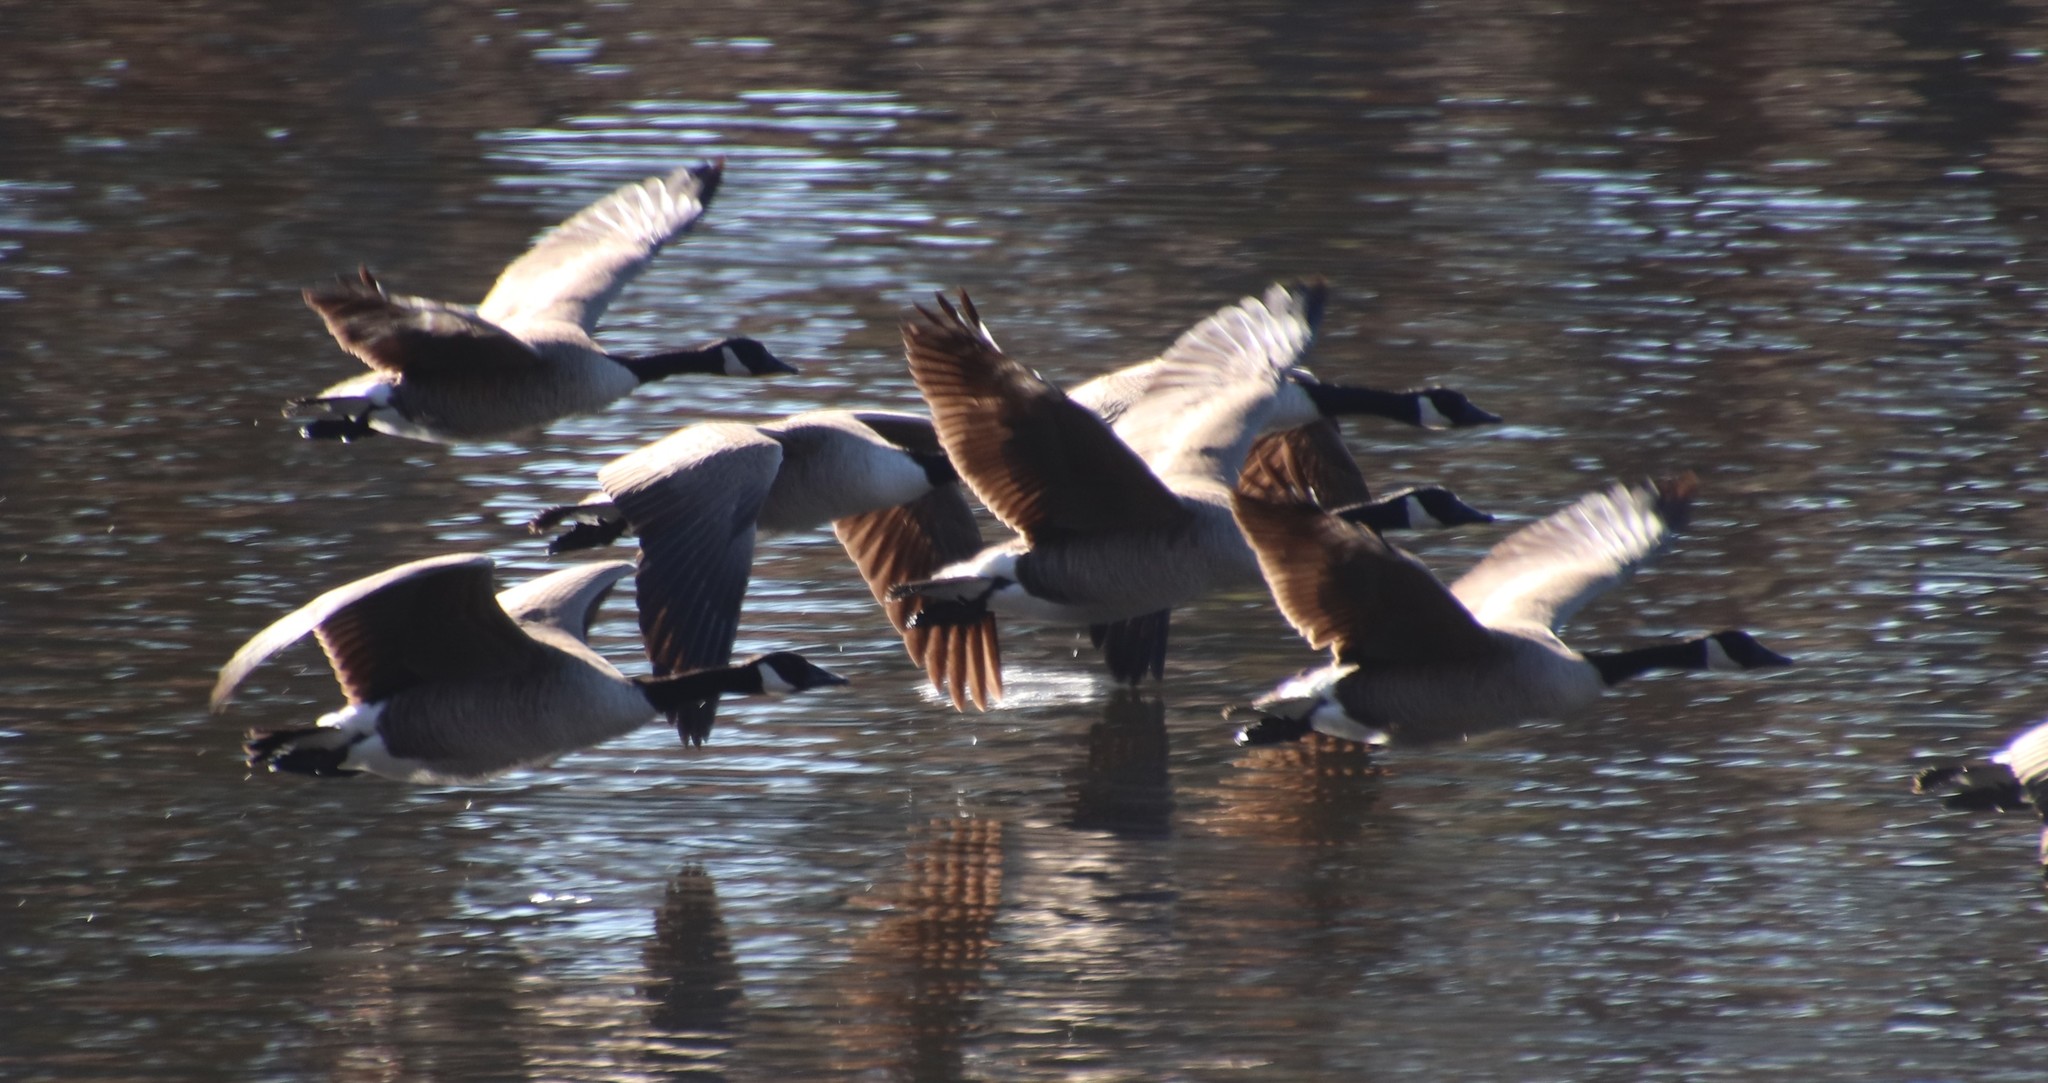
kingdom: Animalia
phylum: Chordata
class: Aves
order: Anseriformes
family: Anatidae
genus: Branta
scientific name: Branta canadensis
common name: Canada goose
